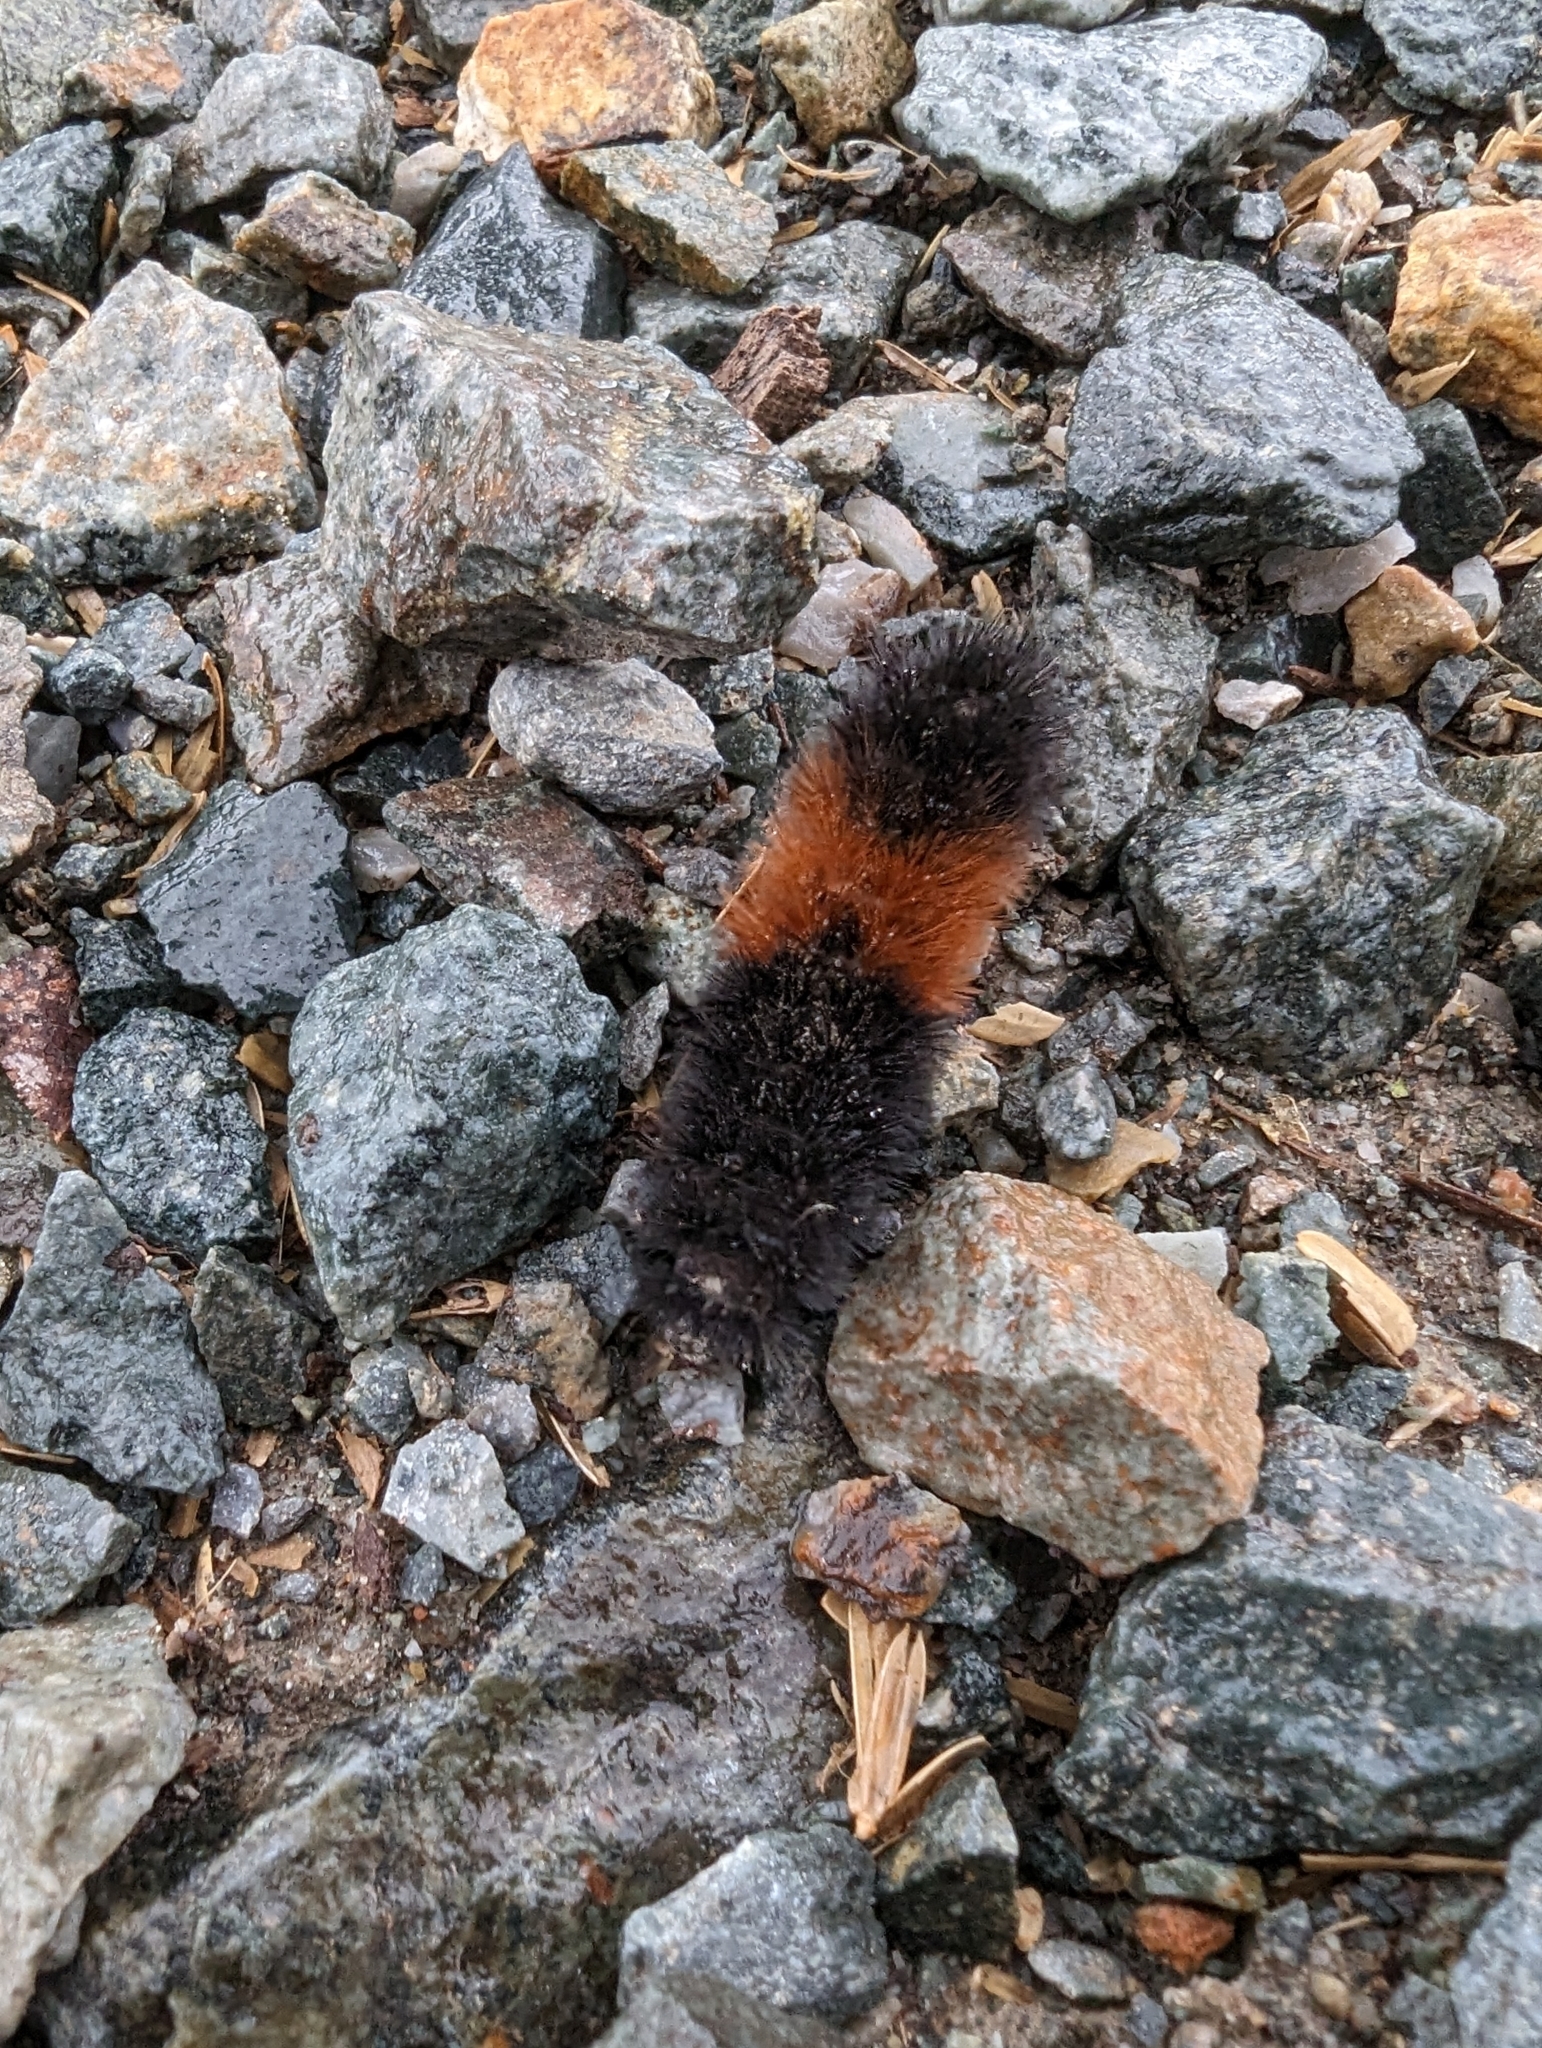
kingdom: Animalia
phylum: Arthropoda
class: Insecta
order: Lepidoptera
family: Erebidae
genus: Pyrrharctia
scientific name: Pyrrharctia isabella
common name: Isabella tiger moth
